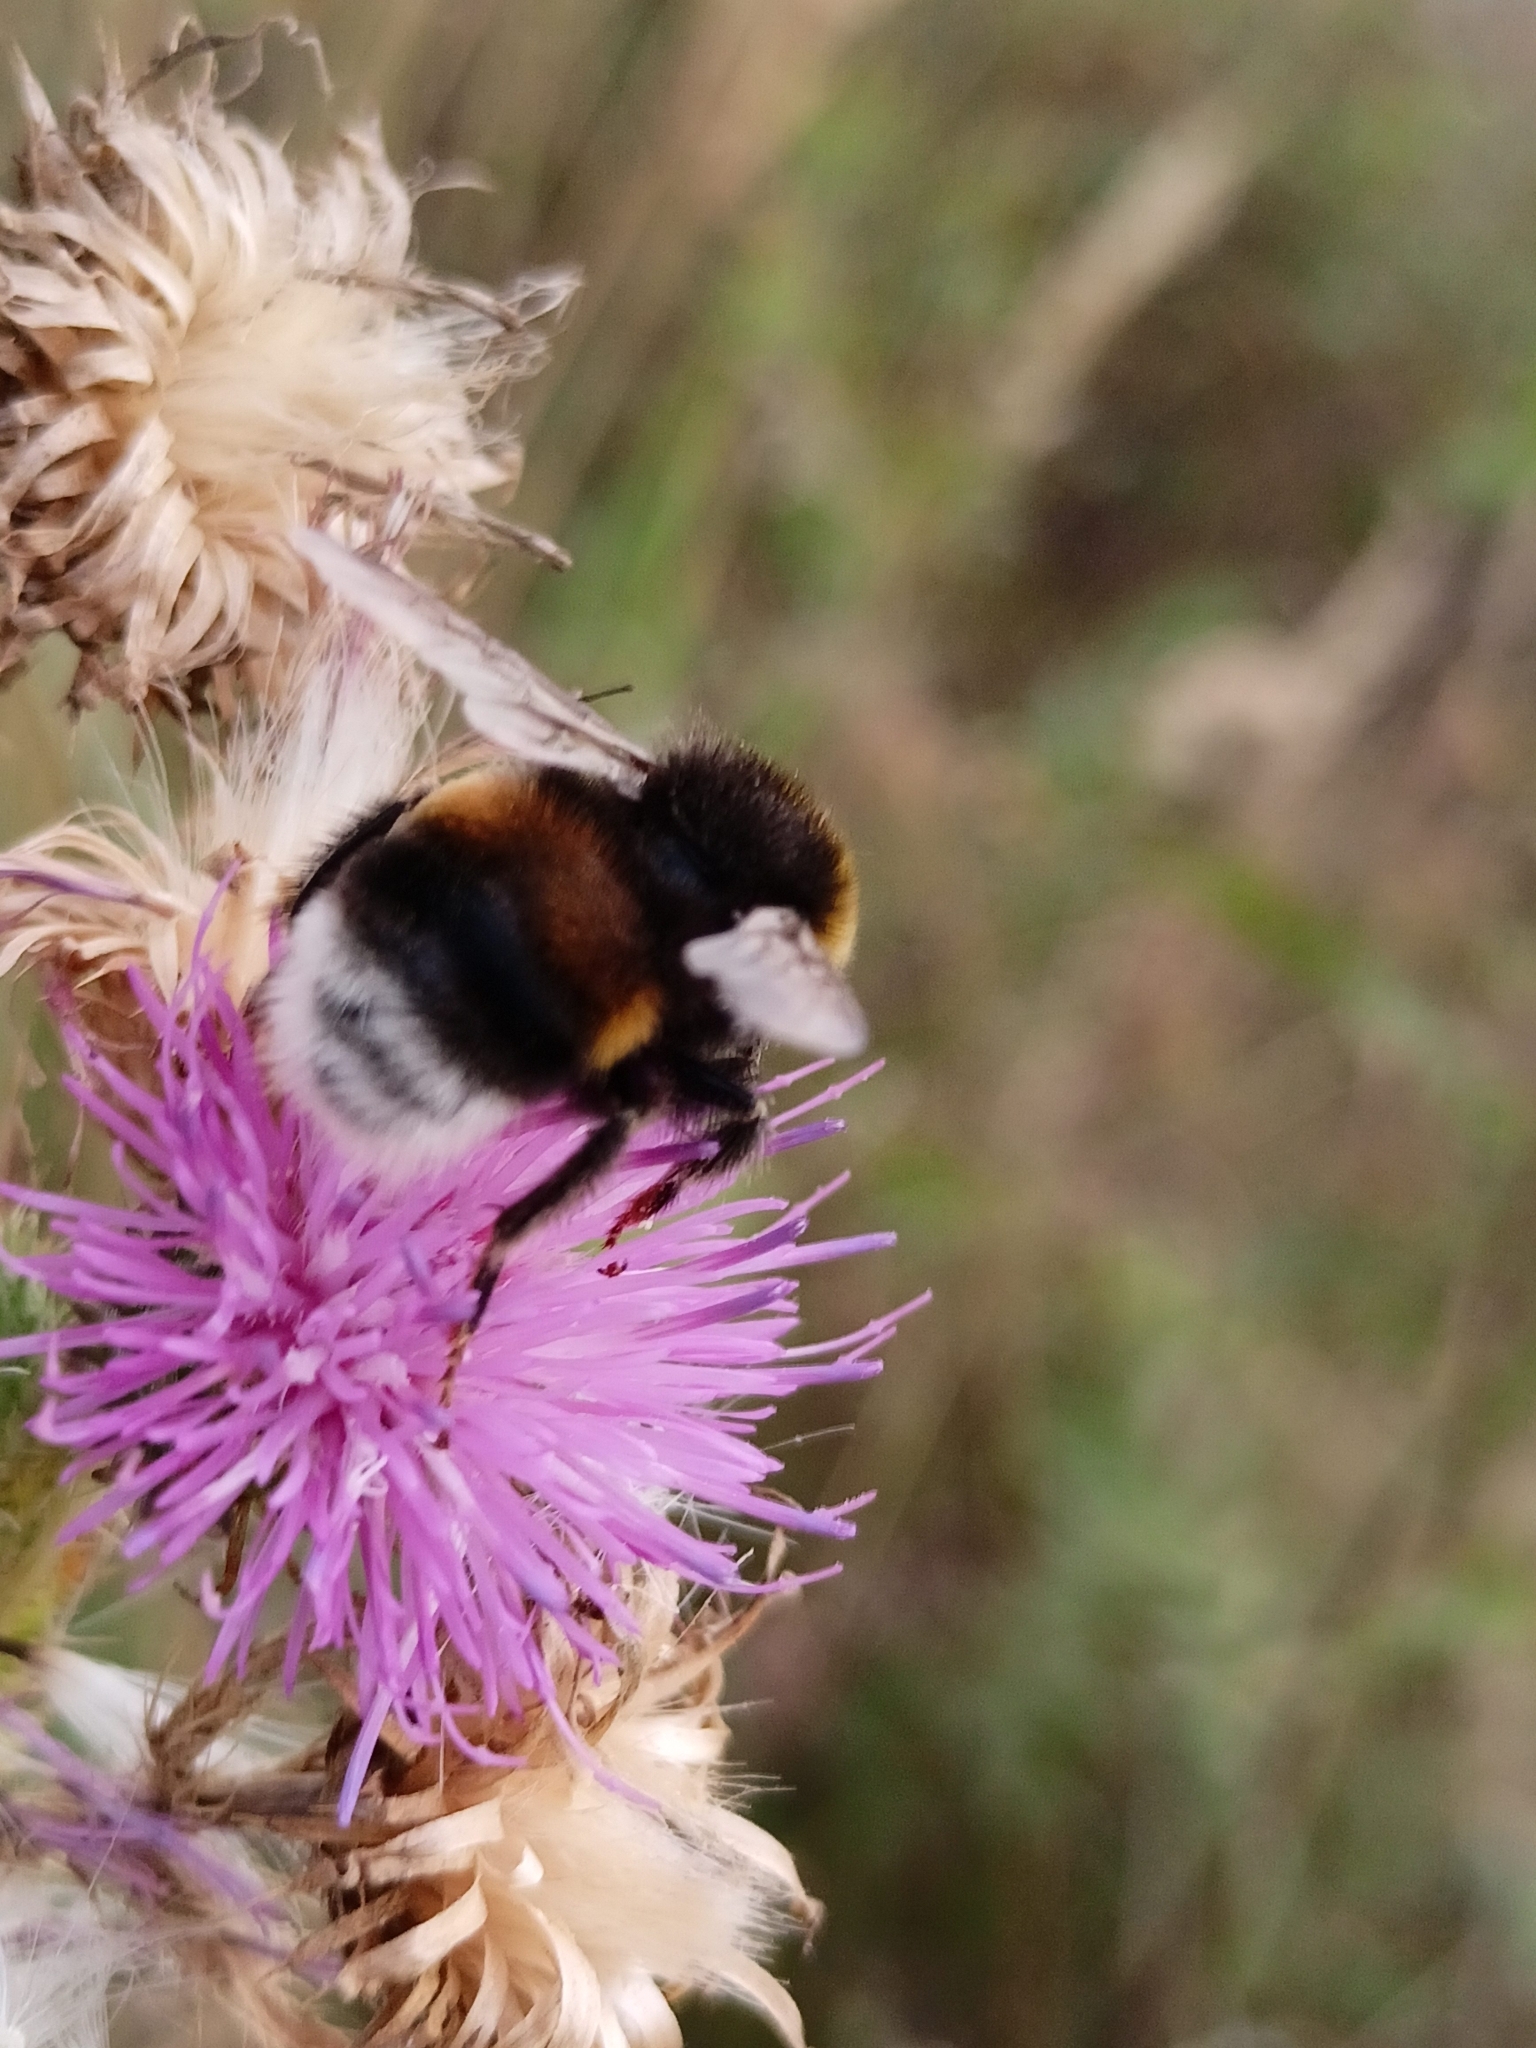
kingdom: Animalia
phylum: Arthropoda
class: Insecta
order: Hymenoptera
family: Apidae
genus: Bombus
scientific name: Bombus terrestris
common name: Buff-tailed bumblebee
